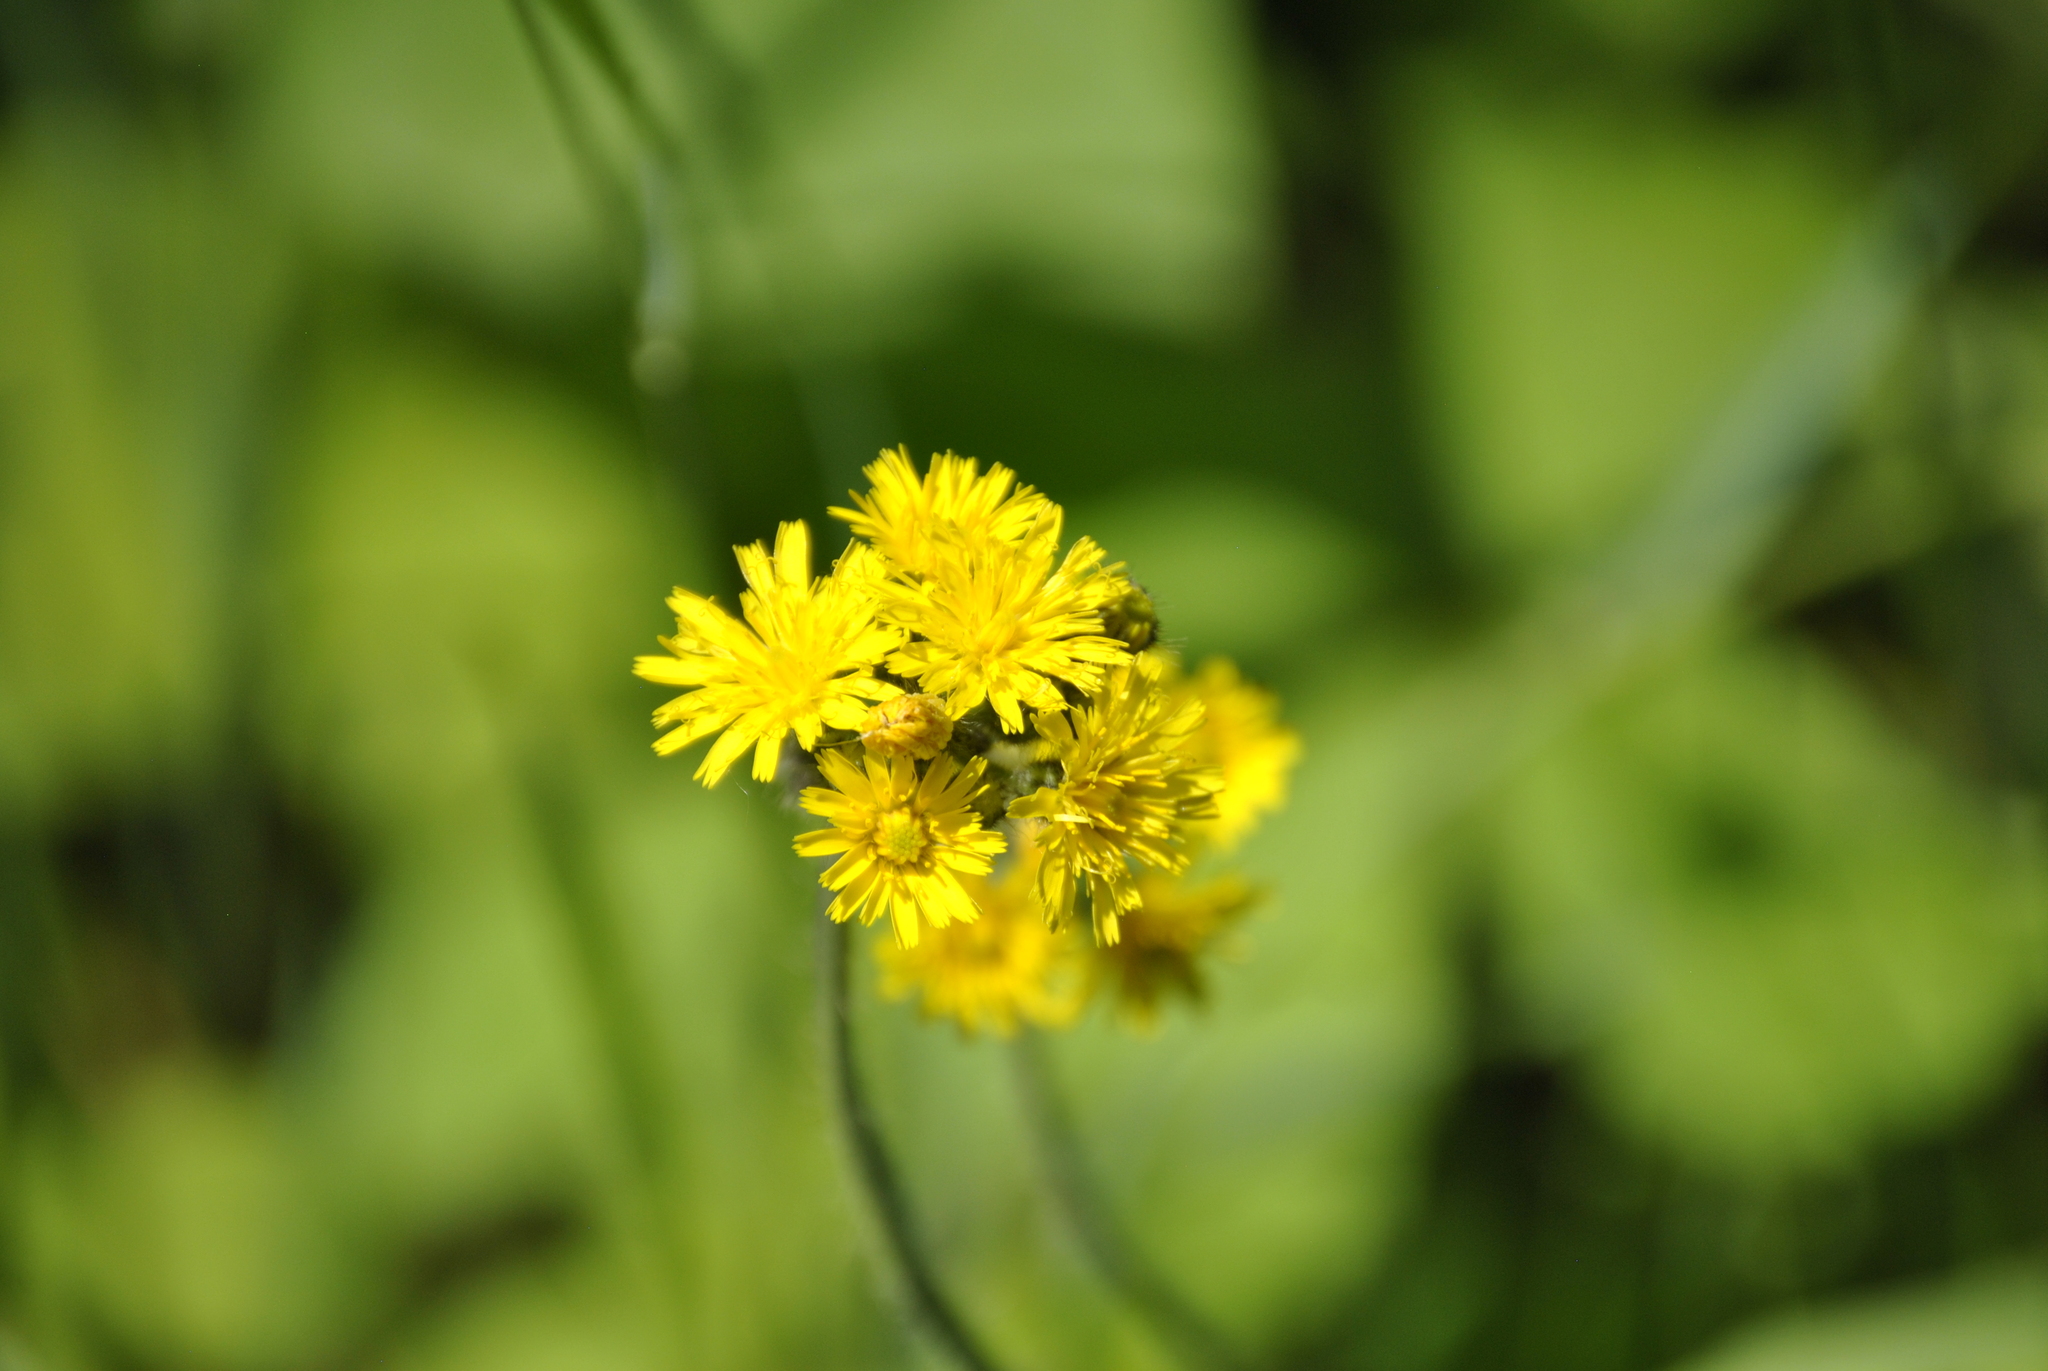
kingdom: Plantae
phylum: Tracheophyta
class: Magnoliopsida
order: Asterales
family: Asteraceae
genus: Pilosella
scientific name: Pilosella caespitosa
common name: Yellow fox-and-cubs
